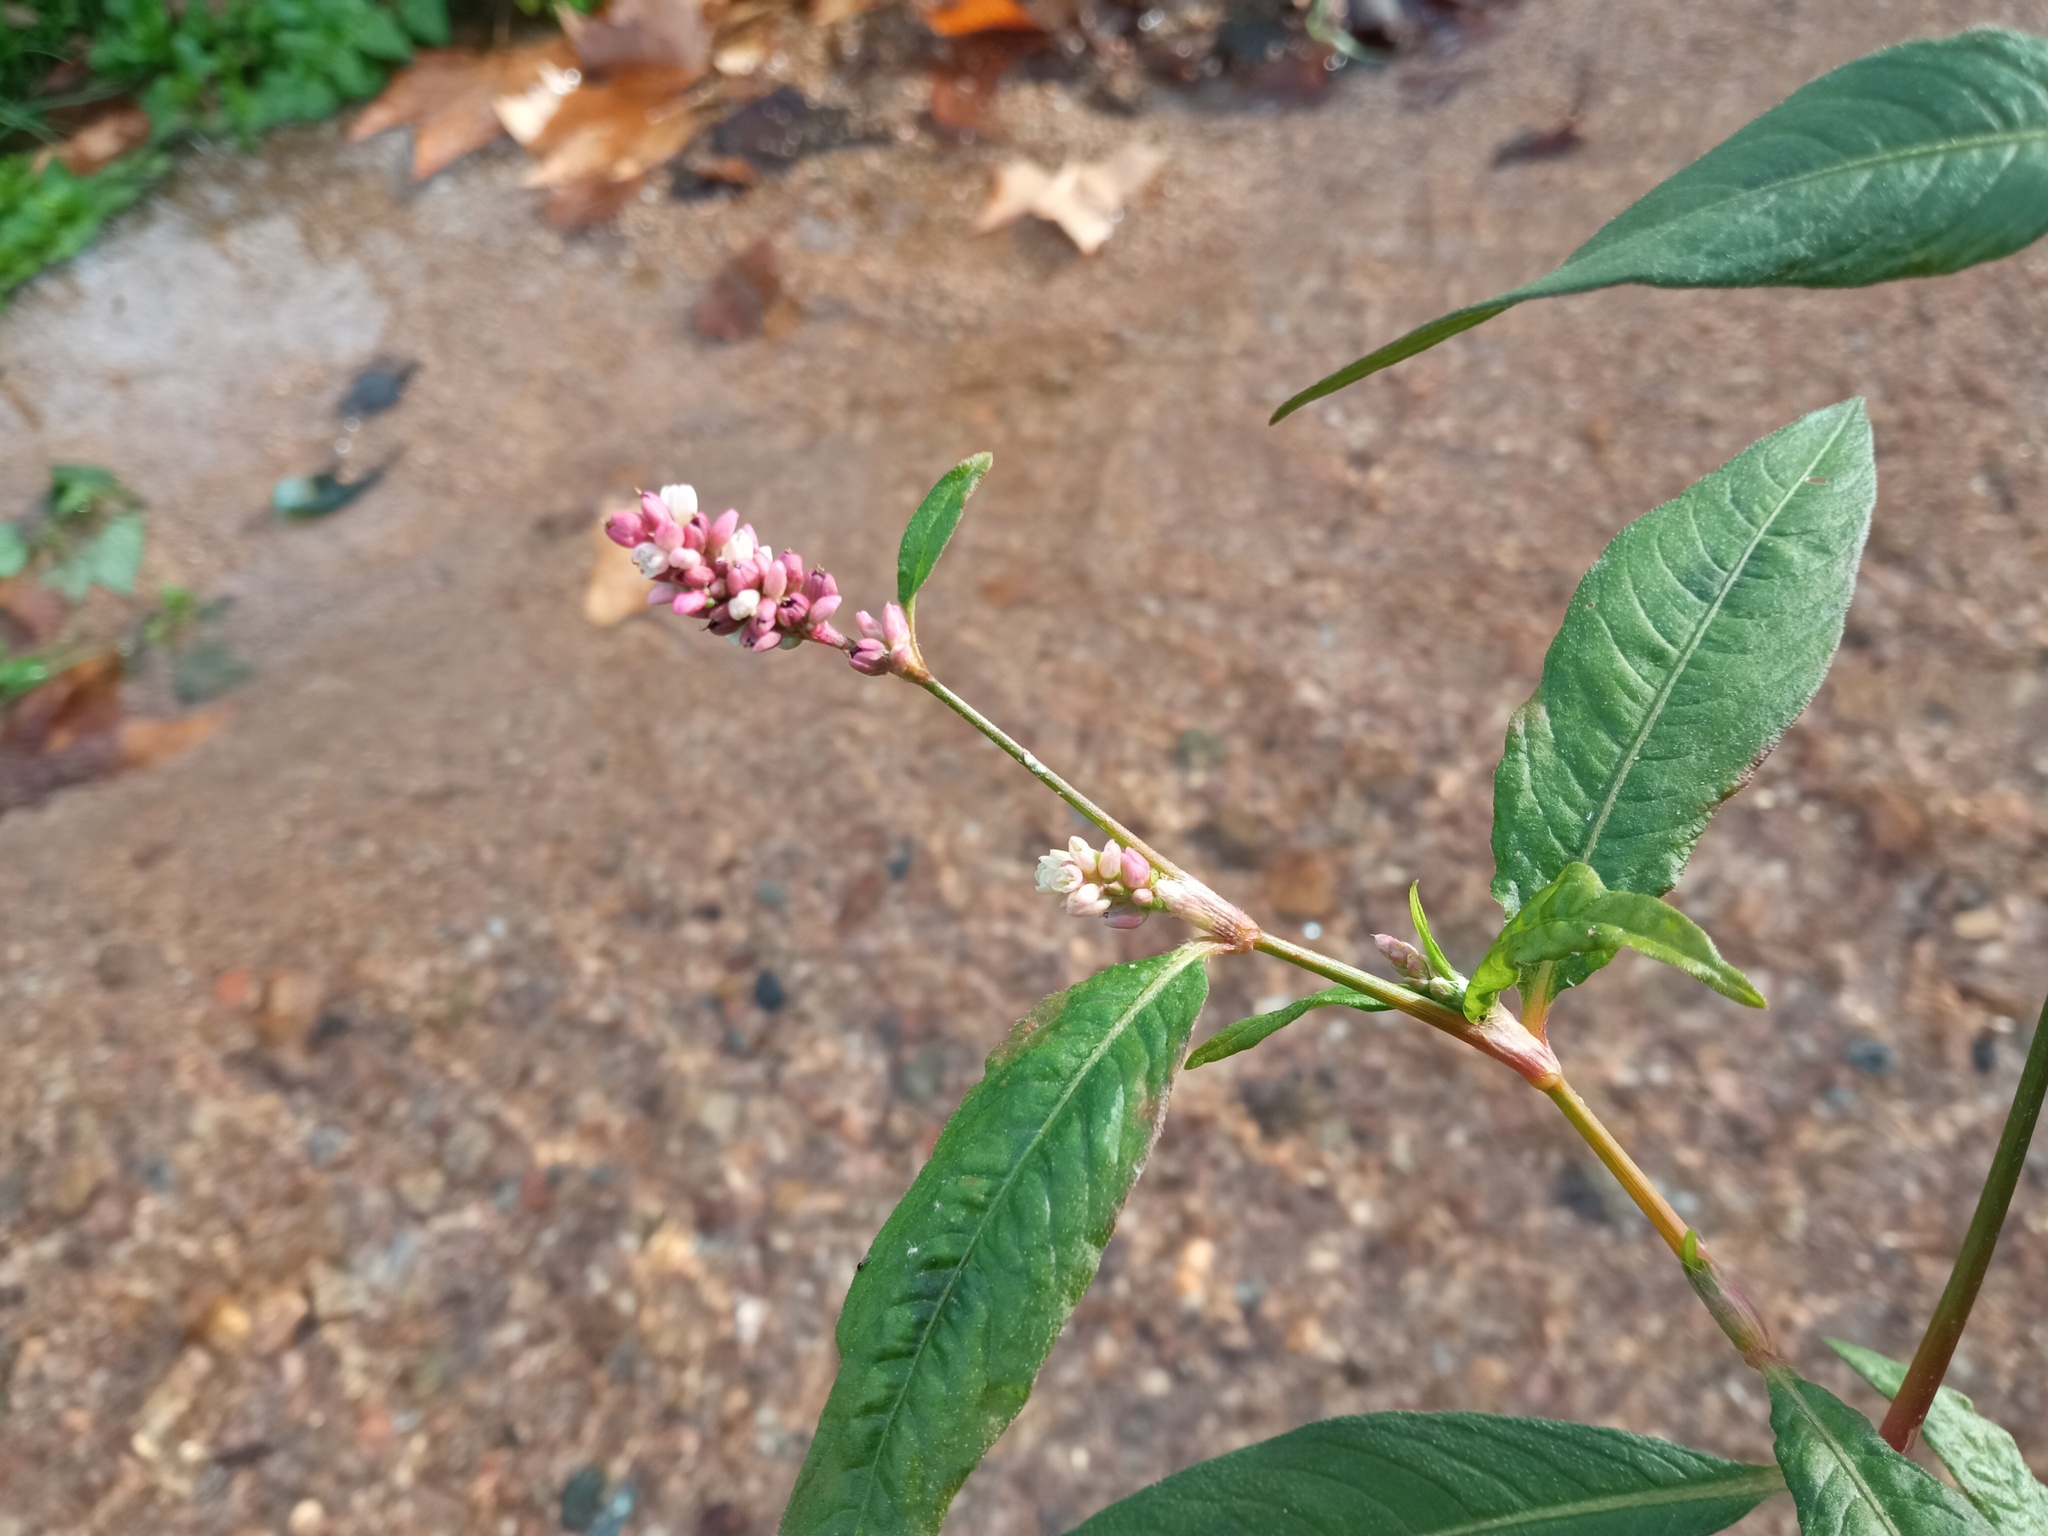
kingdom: Plantae
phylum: Tracheophyta
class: Magnoliopsida
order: Caryophyllales
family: Polygonaceae
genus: Persicaria
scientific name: Persicaria maculosa
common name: Redshank
